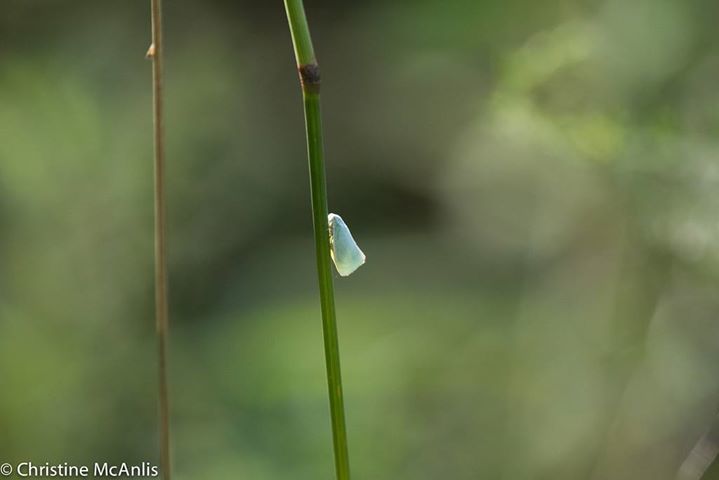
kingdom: Animalia
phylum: Arthropoda
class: Insecta
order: Hemiptera
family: Flatidae
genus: Flatormenis
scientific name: Flatormenis proxima
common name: Northern flatid planthopper
